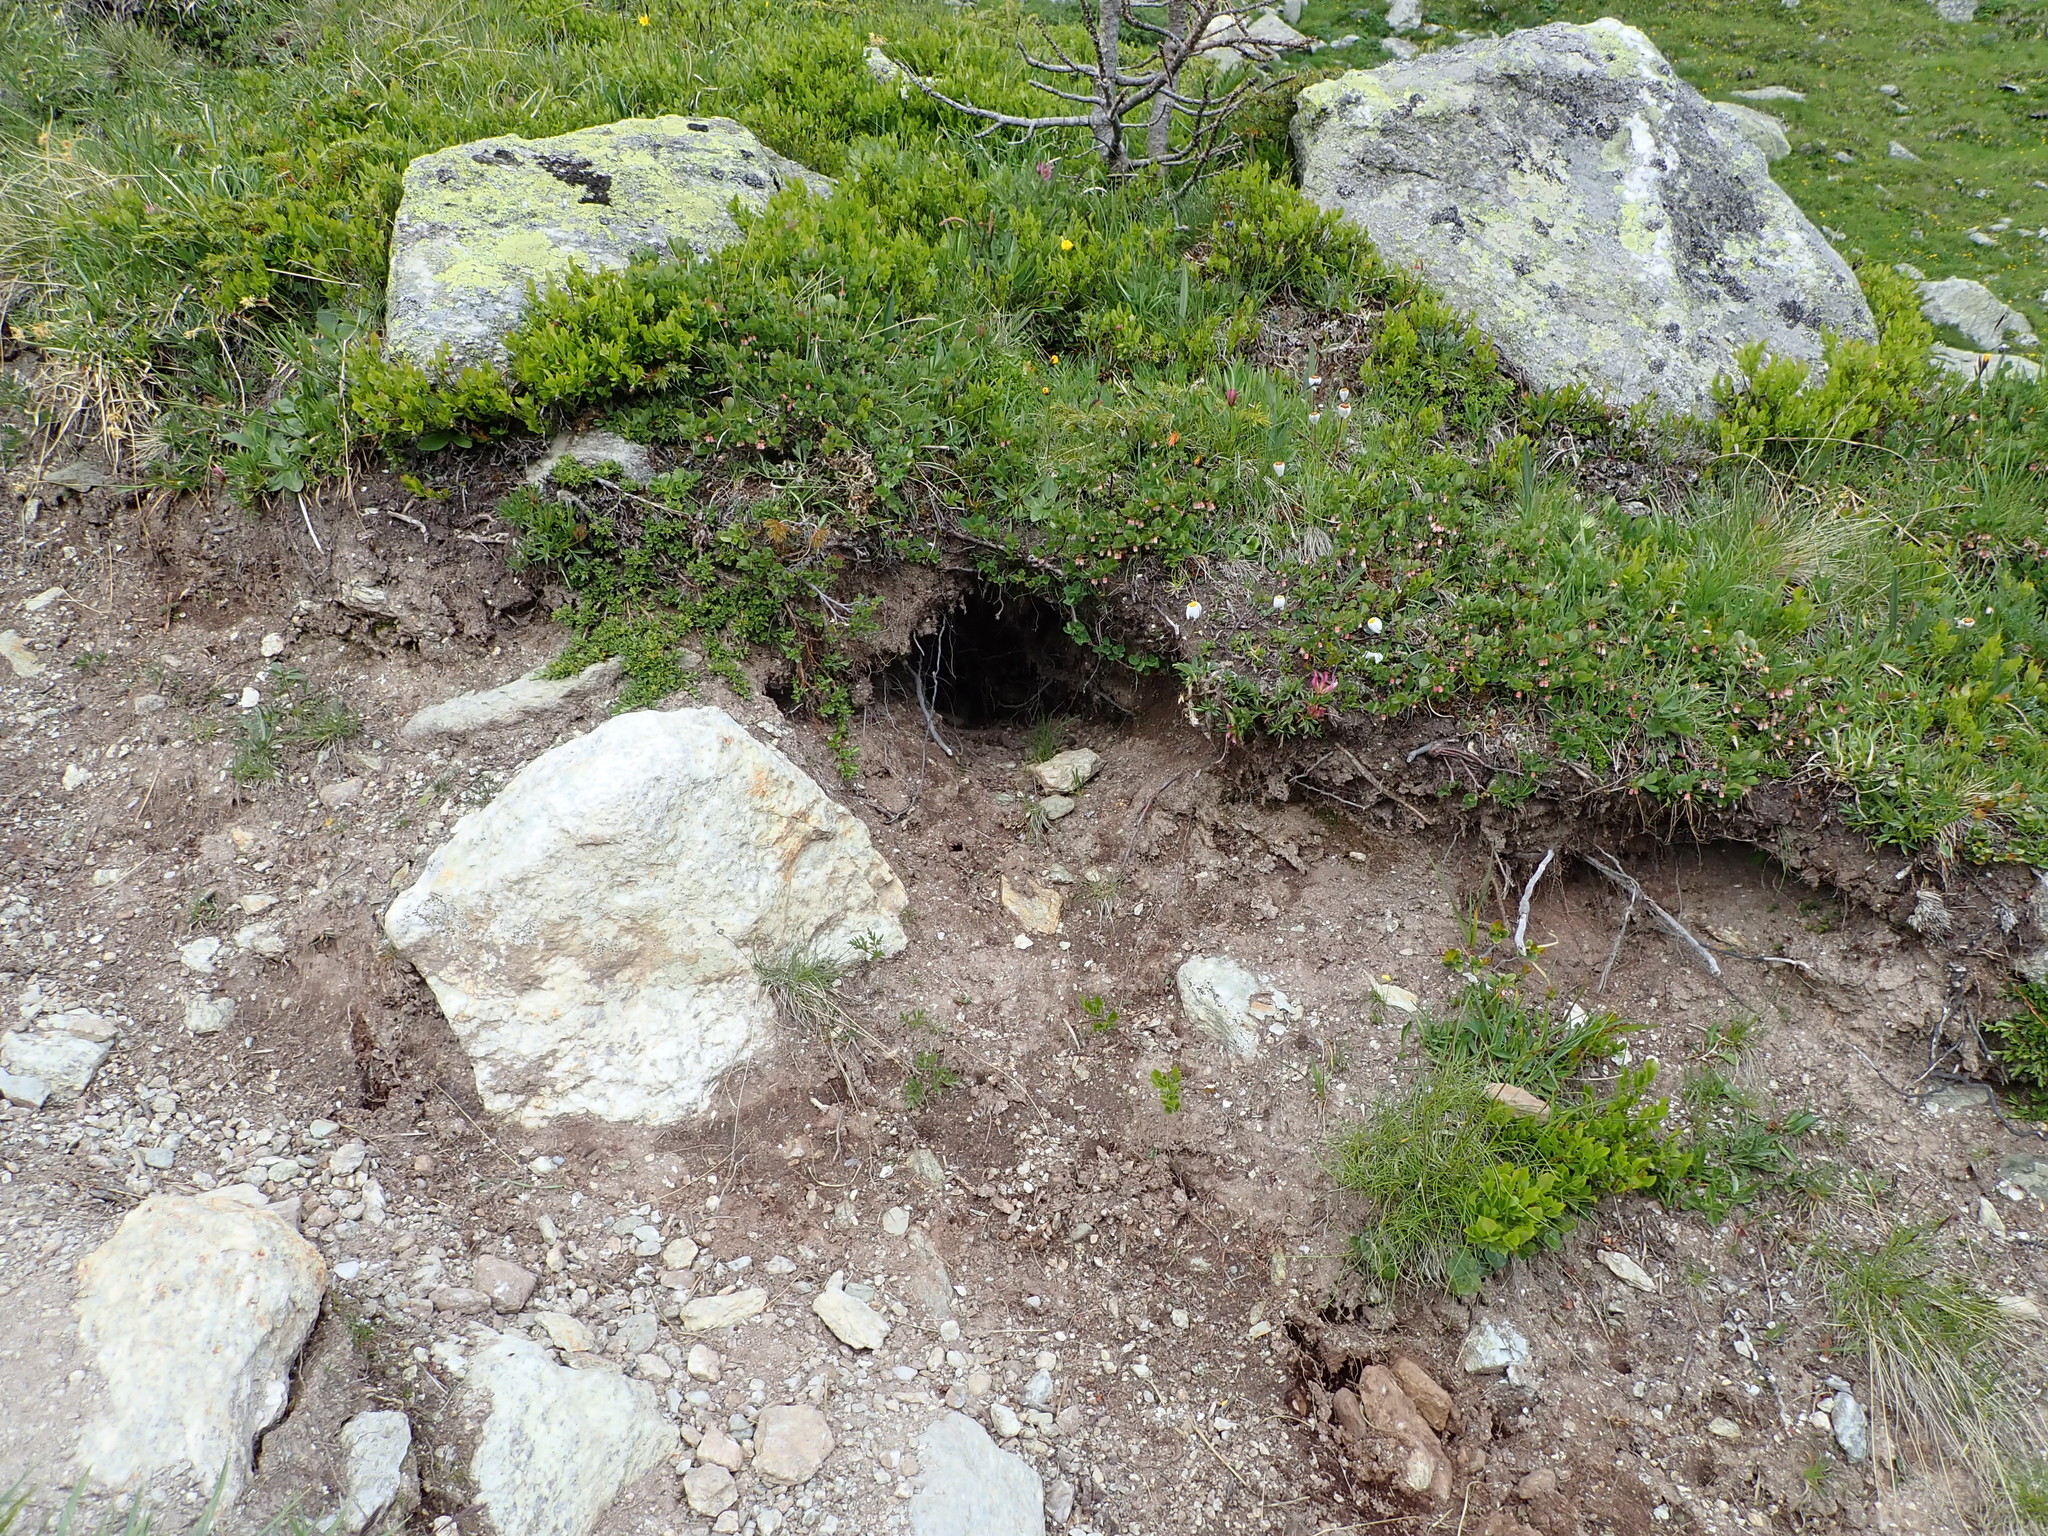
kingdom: Animalia
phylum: Chordata
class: Mammalia
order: Rodentia
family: Sciuridae
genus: Marmota
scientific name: Marmota marmota
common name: Alpine marmot
